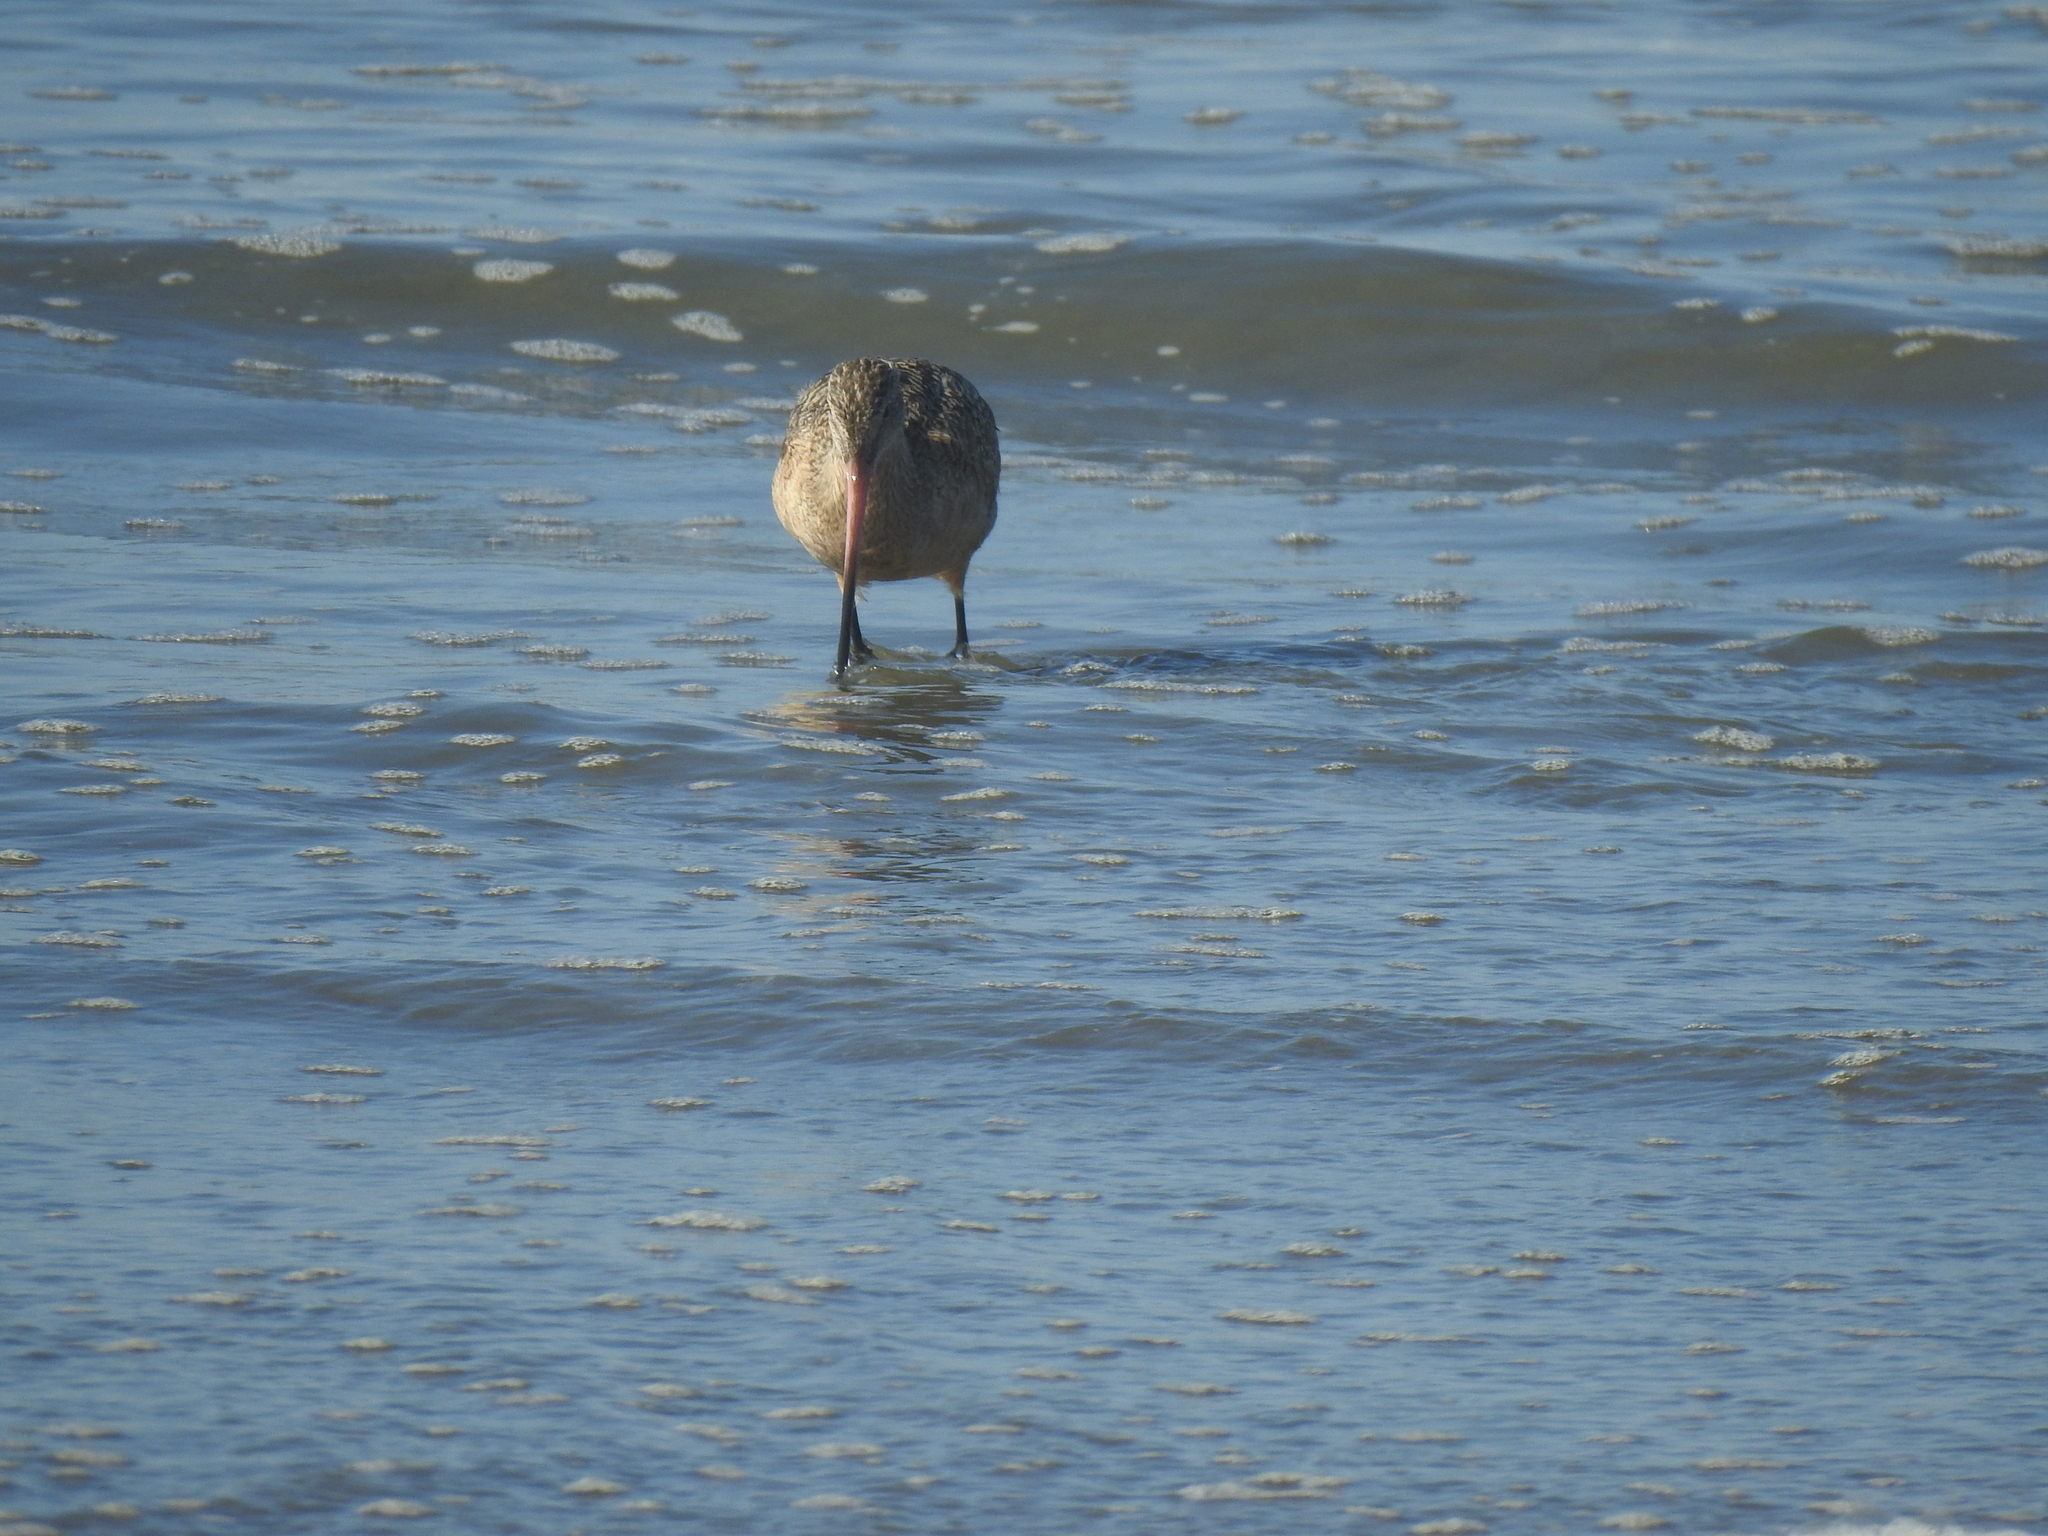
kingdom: Animalia
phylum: Chordata
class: Aves
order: Charadriiformes
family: Scolopacidae
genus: Limosa
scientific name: Limosa fedoa
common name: Marbled godwit
